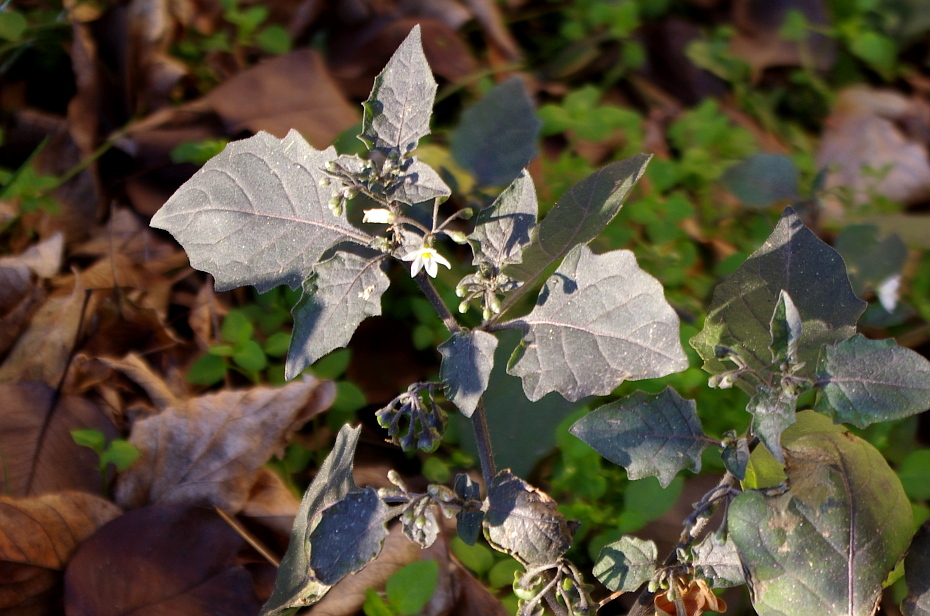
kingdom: Plantae
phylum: Tracheophyta
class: Magnoliopsida
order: Solanales
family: Solanaceae
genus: Solanum
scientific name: Solanum nigrum
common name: Black nightshade
